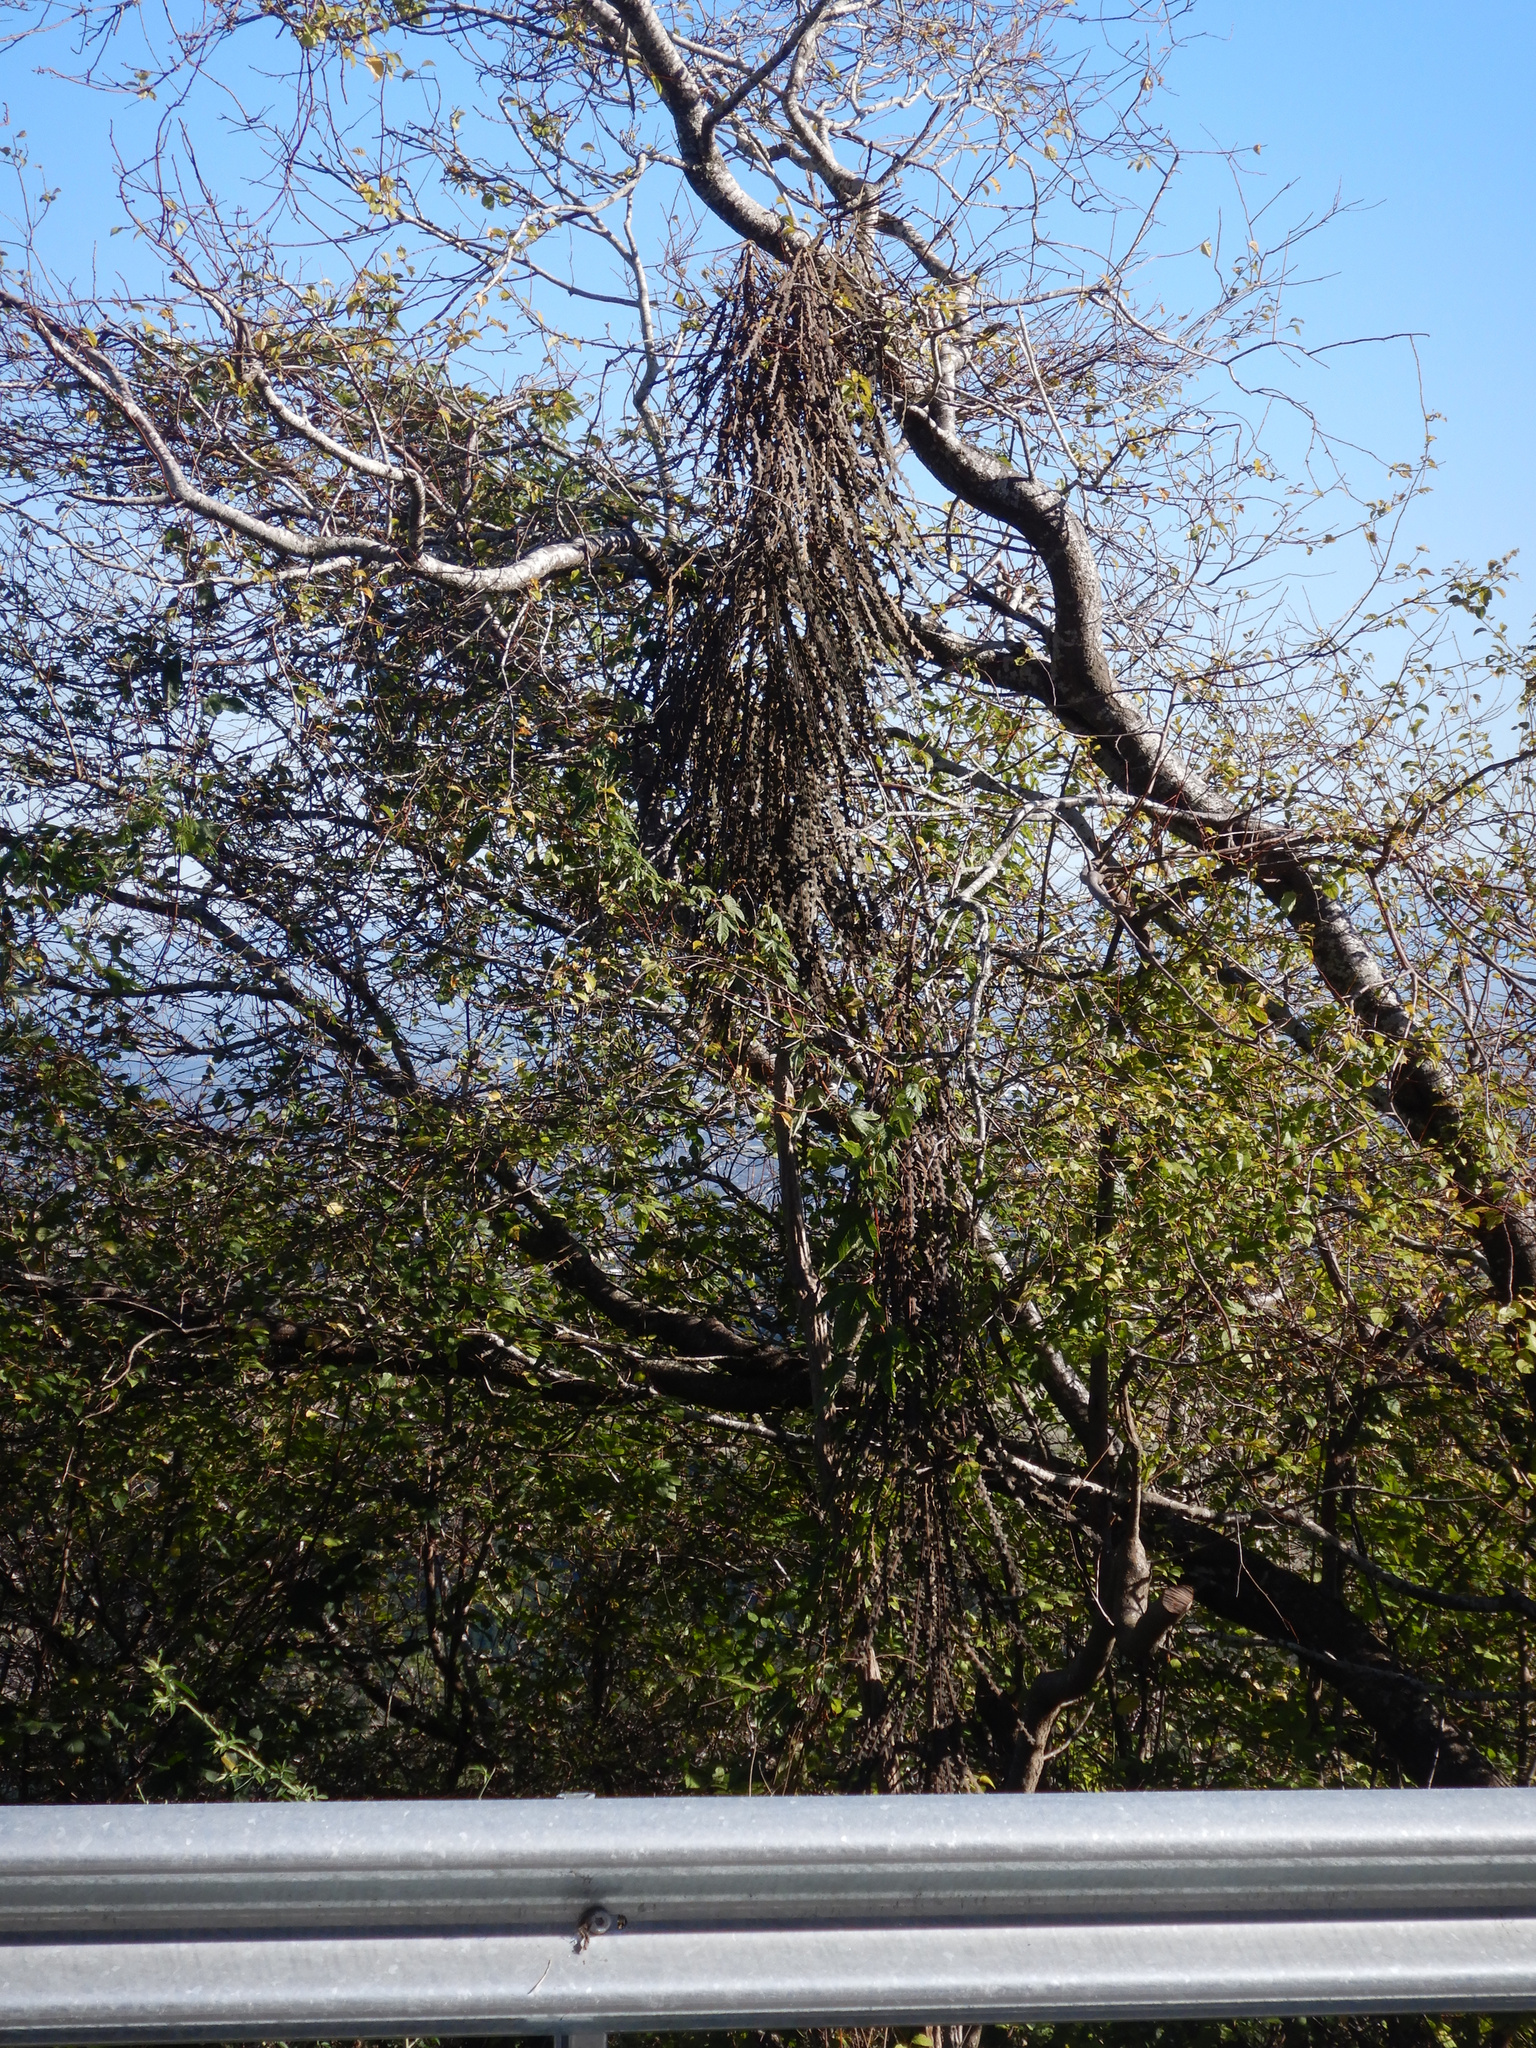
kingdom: Plantae
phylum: Tracheophyta
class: Magnoliopsida
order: Apiales
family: Araliaceae
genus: Pseudopanax
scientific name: Pseudopanax ferox
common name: Fierce lancewood
